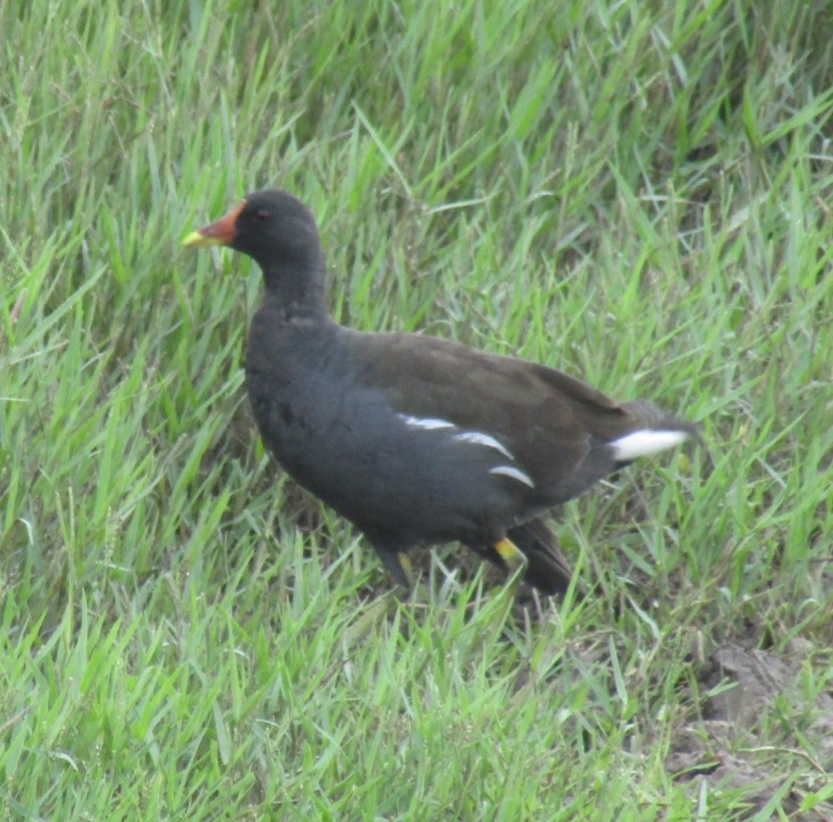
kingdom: Animalia
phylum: Chordata
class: Aves
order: Gruiformes
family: Rallidae
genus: Gallinula
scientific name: Gallinula chloropus
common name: Common moorhen
